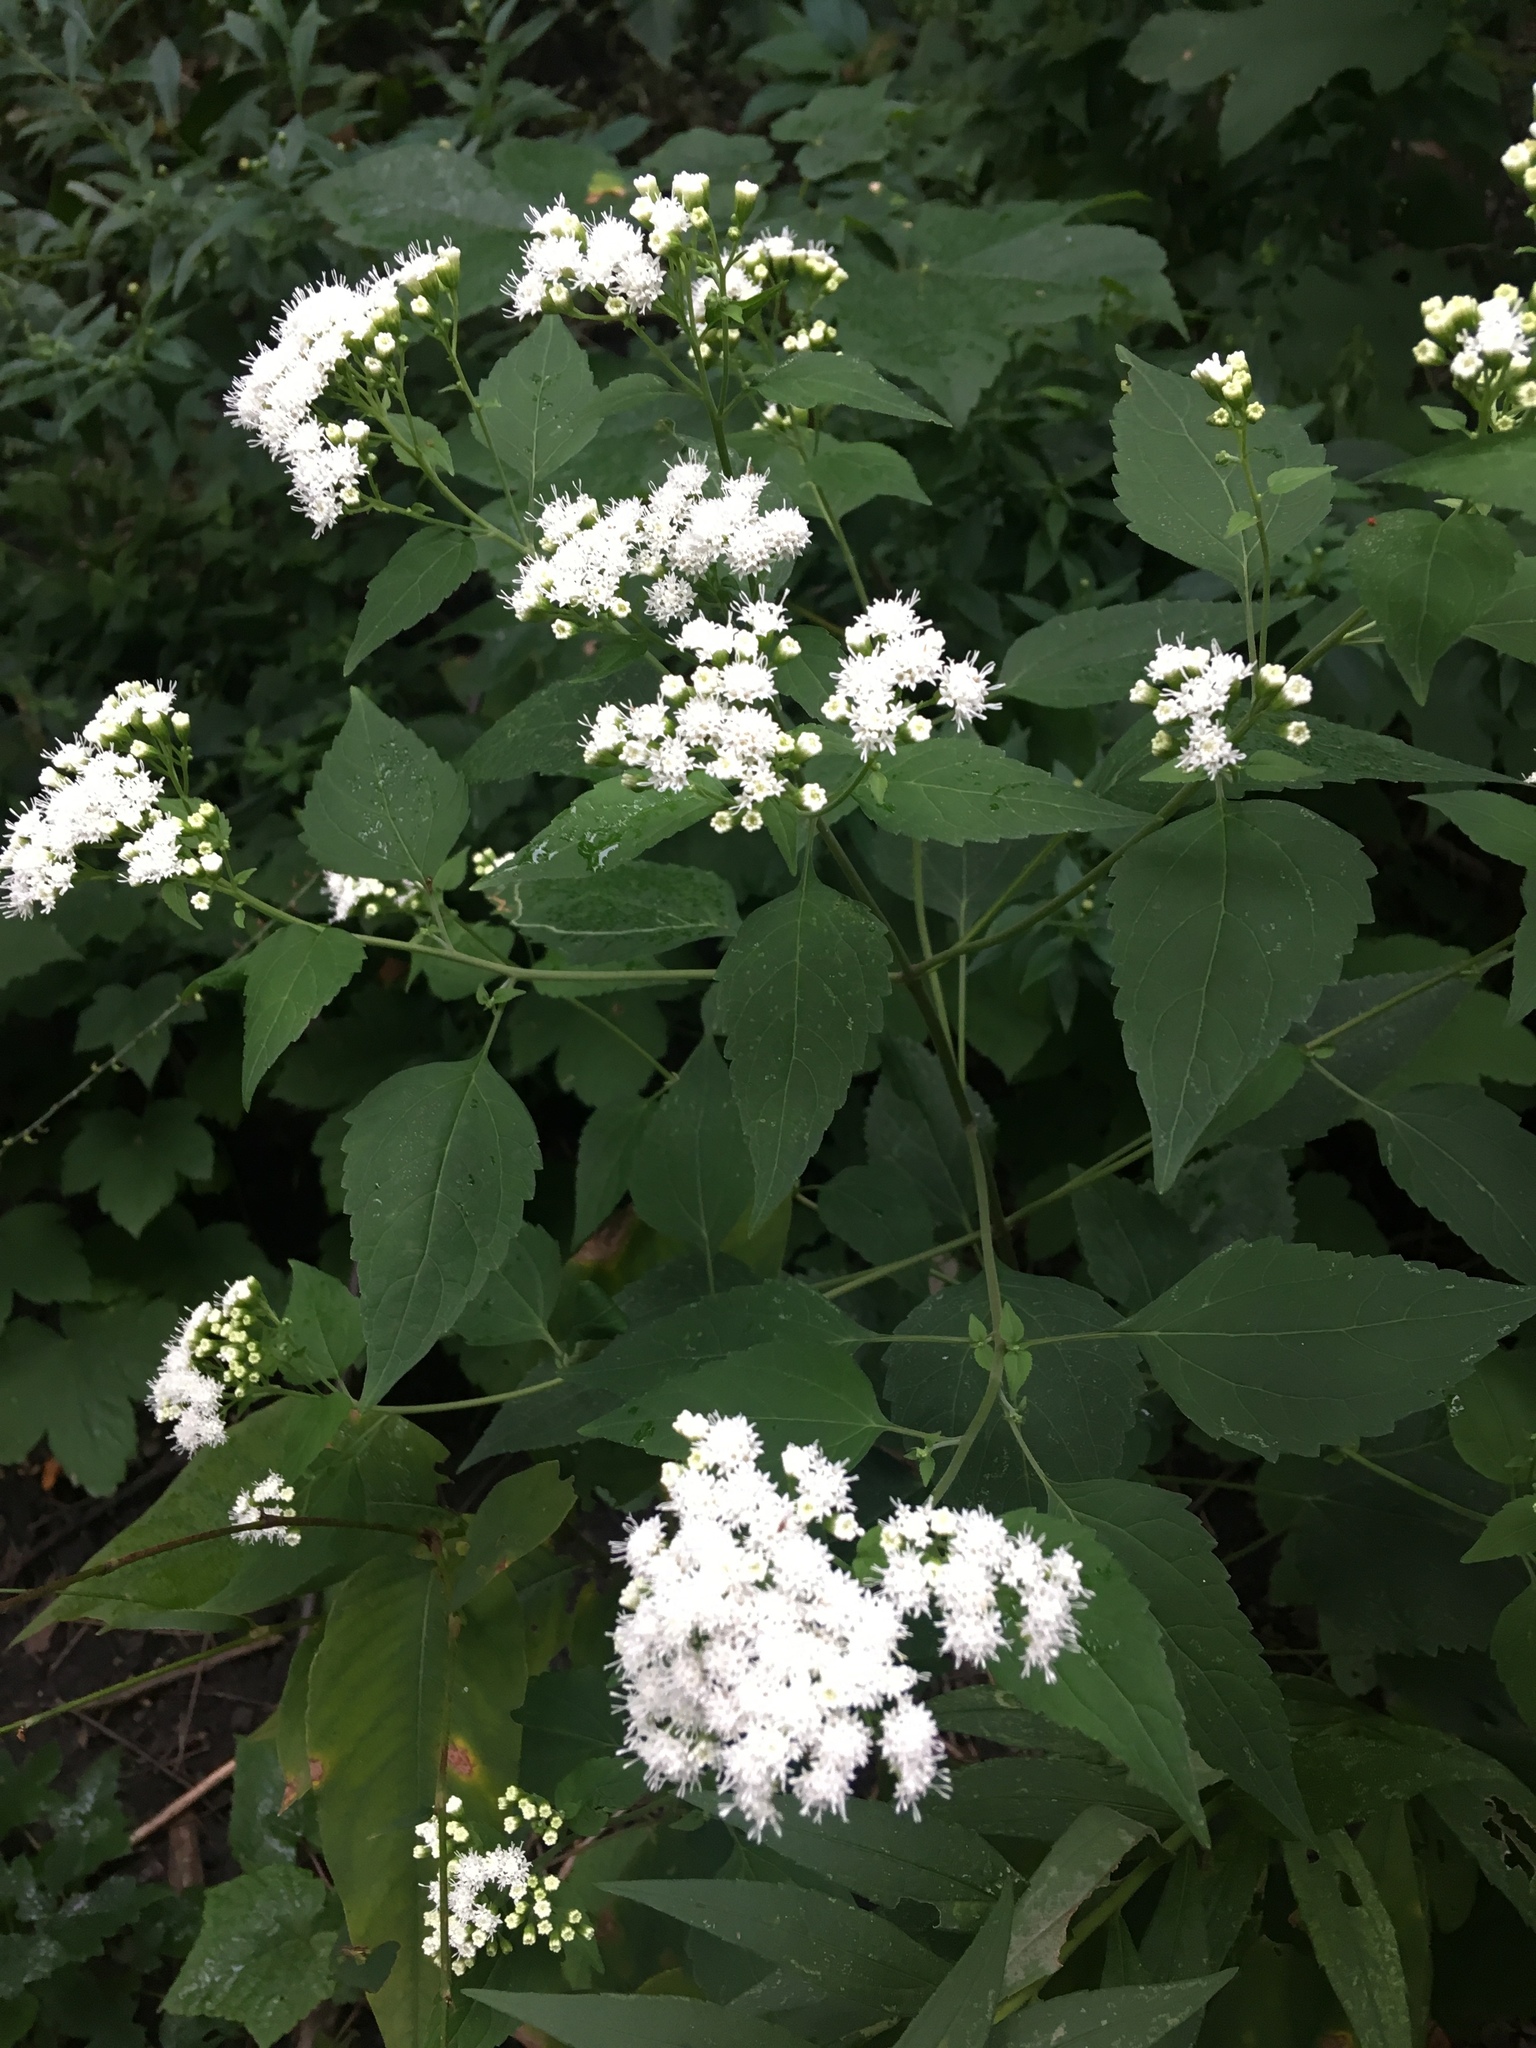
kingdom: Plantae
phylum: Tracheophyta
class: Magnoliopsida
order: Asterales
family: Asteraceae
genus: Ageratina
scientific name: Ageratina altissima
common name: White snakeroot
